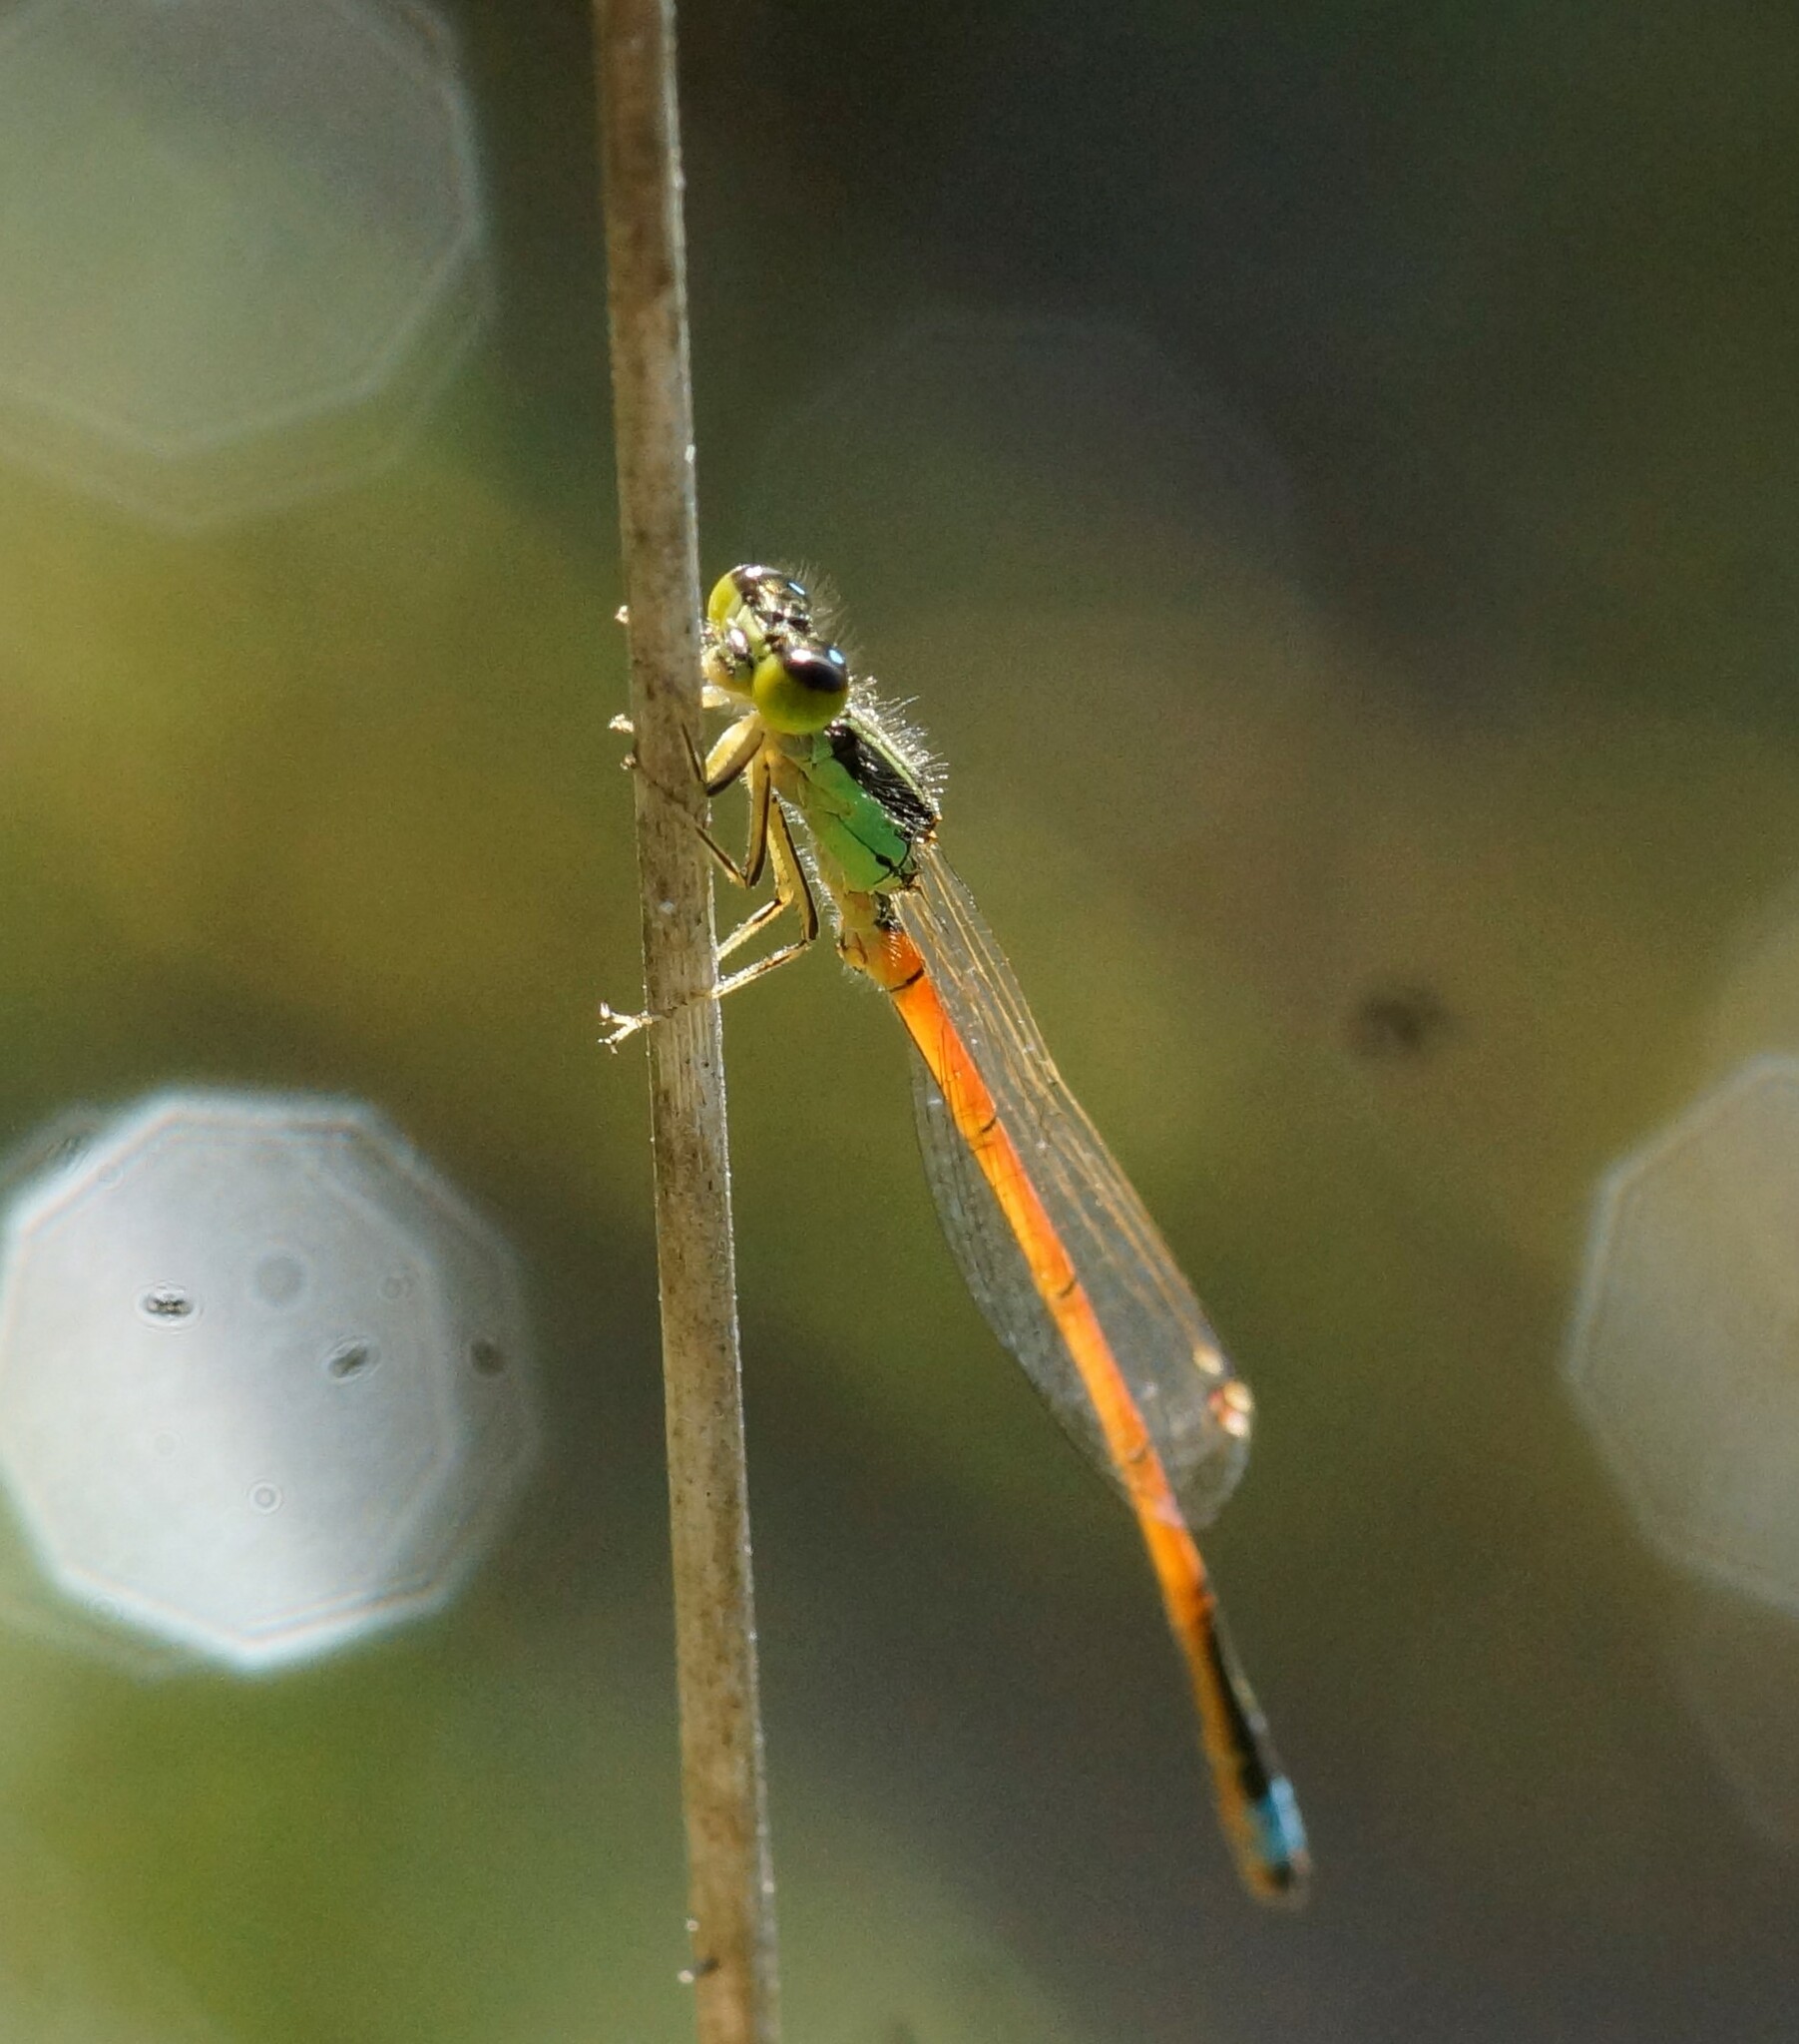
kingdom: Animalia
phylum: Arthropoda
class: Insecta
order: Odonata
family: Coenagrionidae
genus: Ischnura
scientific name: Ischnura aurora
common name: Gossamer damselfly
